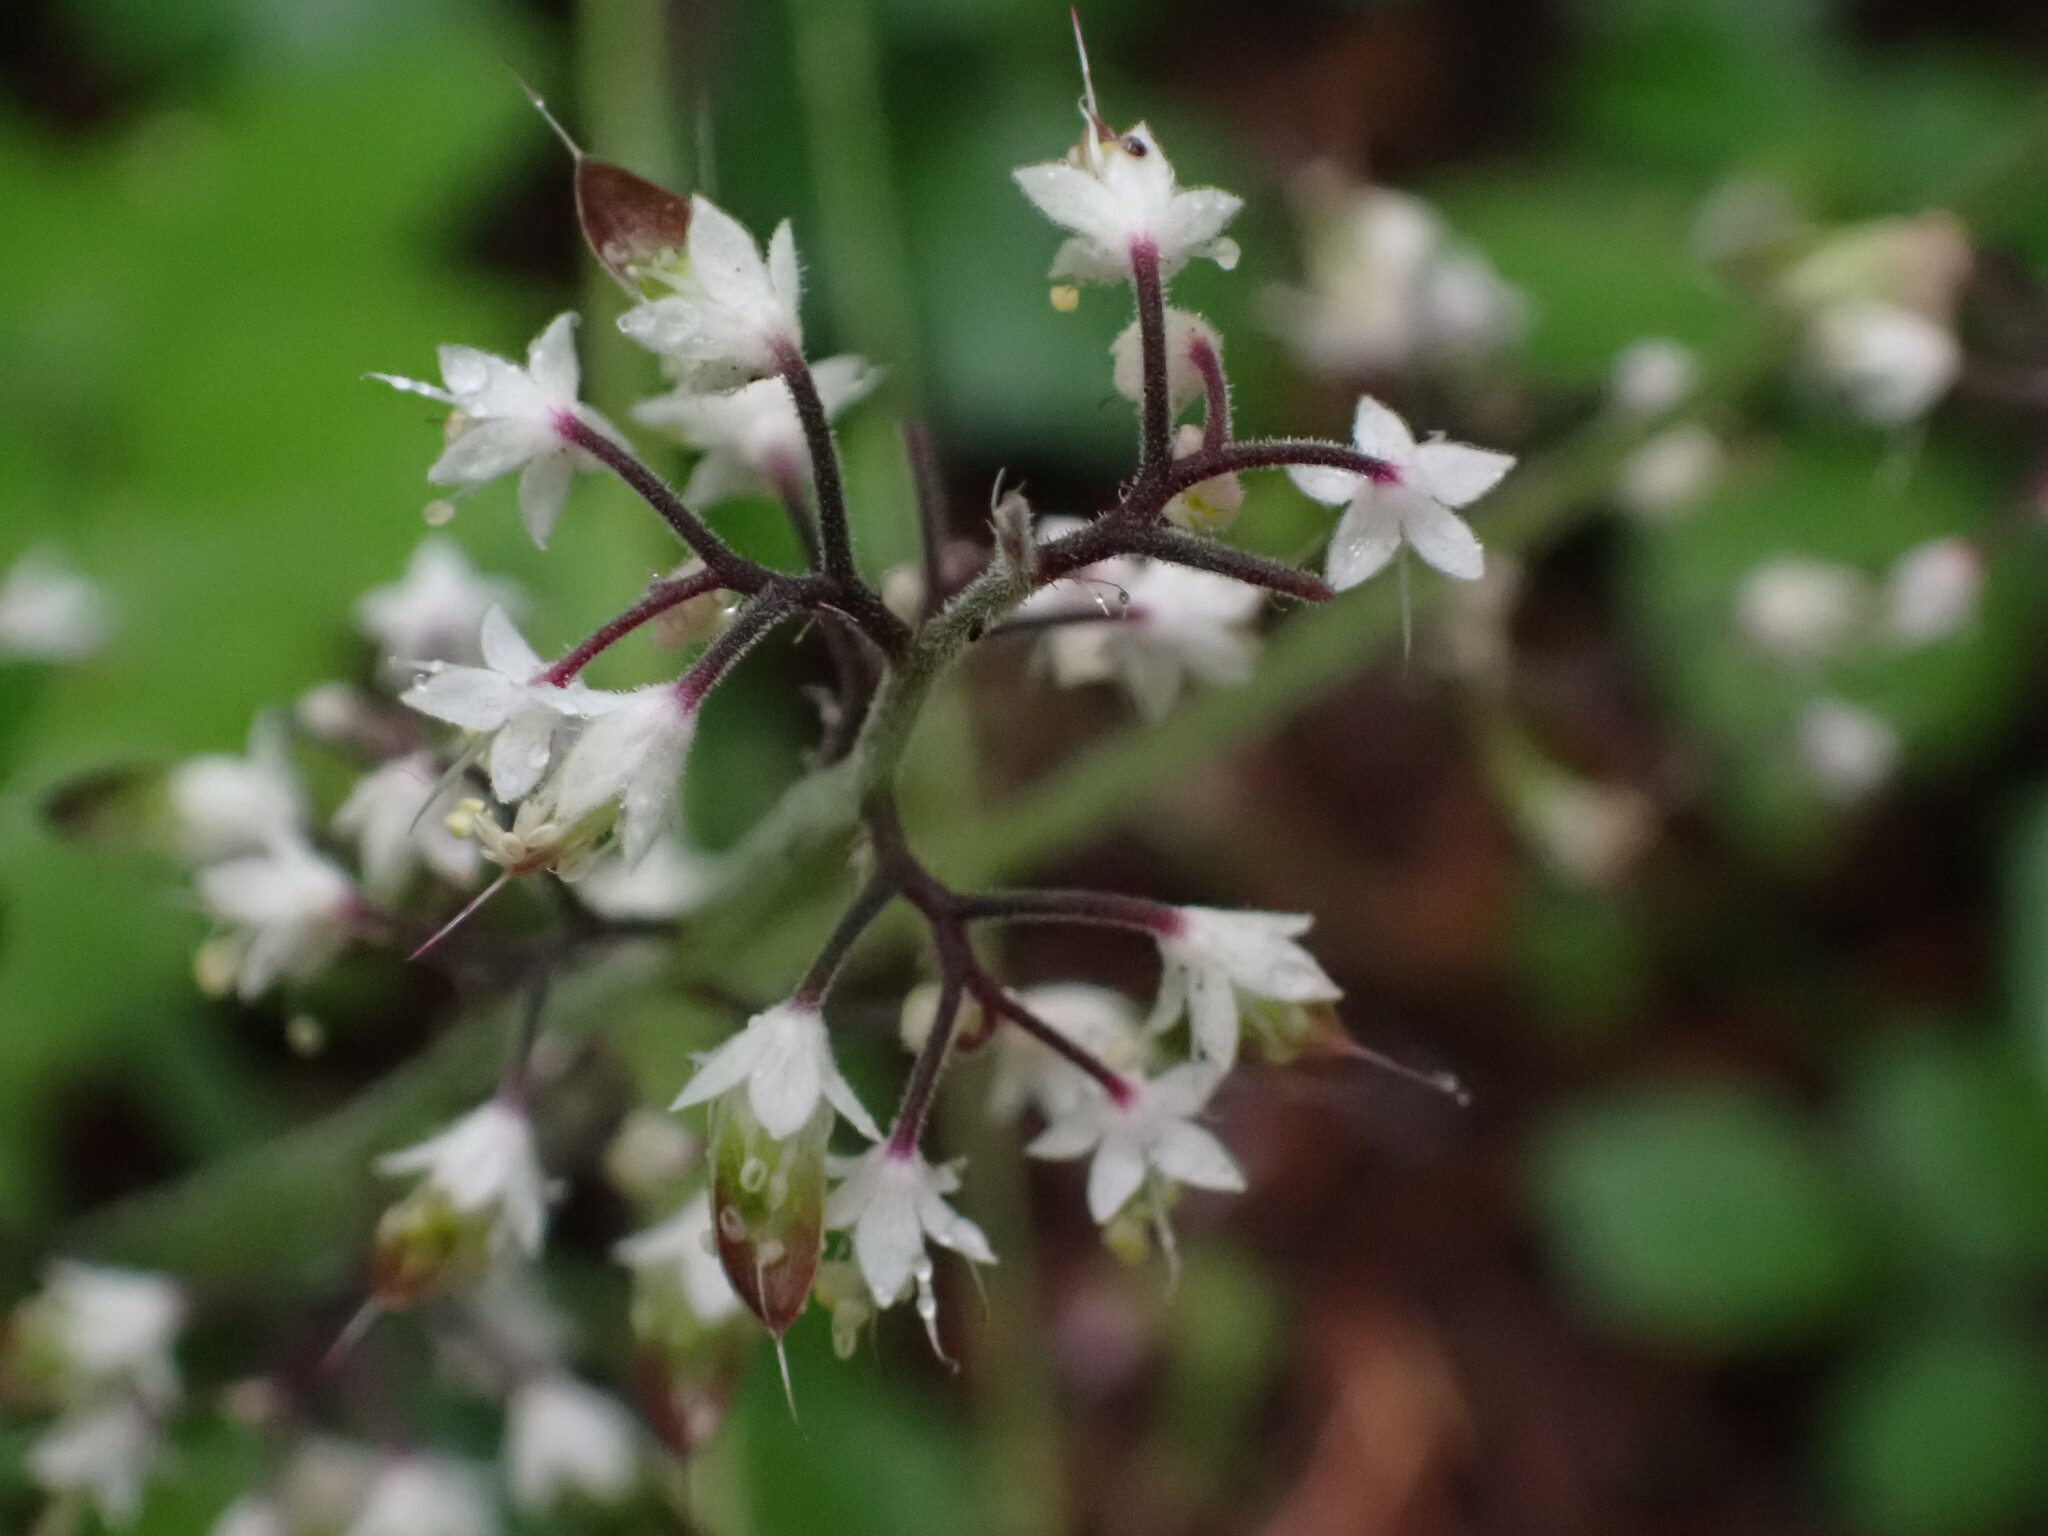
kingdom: Plantae
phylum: Tracheophyta
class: Magnoliopsida
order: Saxifragales
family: Saxifragaceae
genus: Tiarella
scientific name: Tiarella trifoliata
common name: Sugar-scoop
